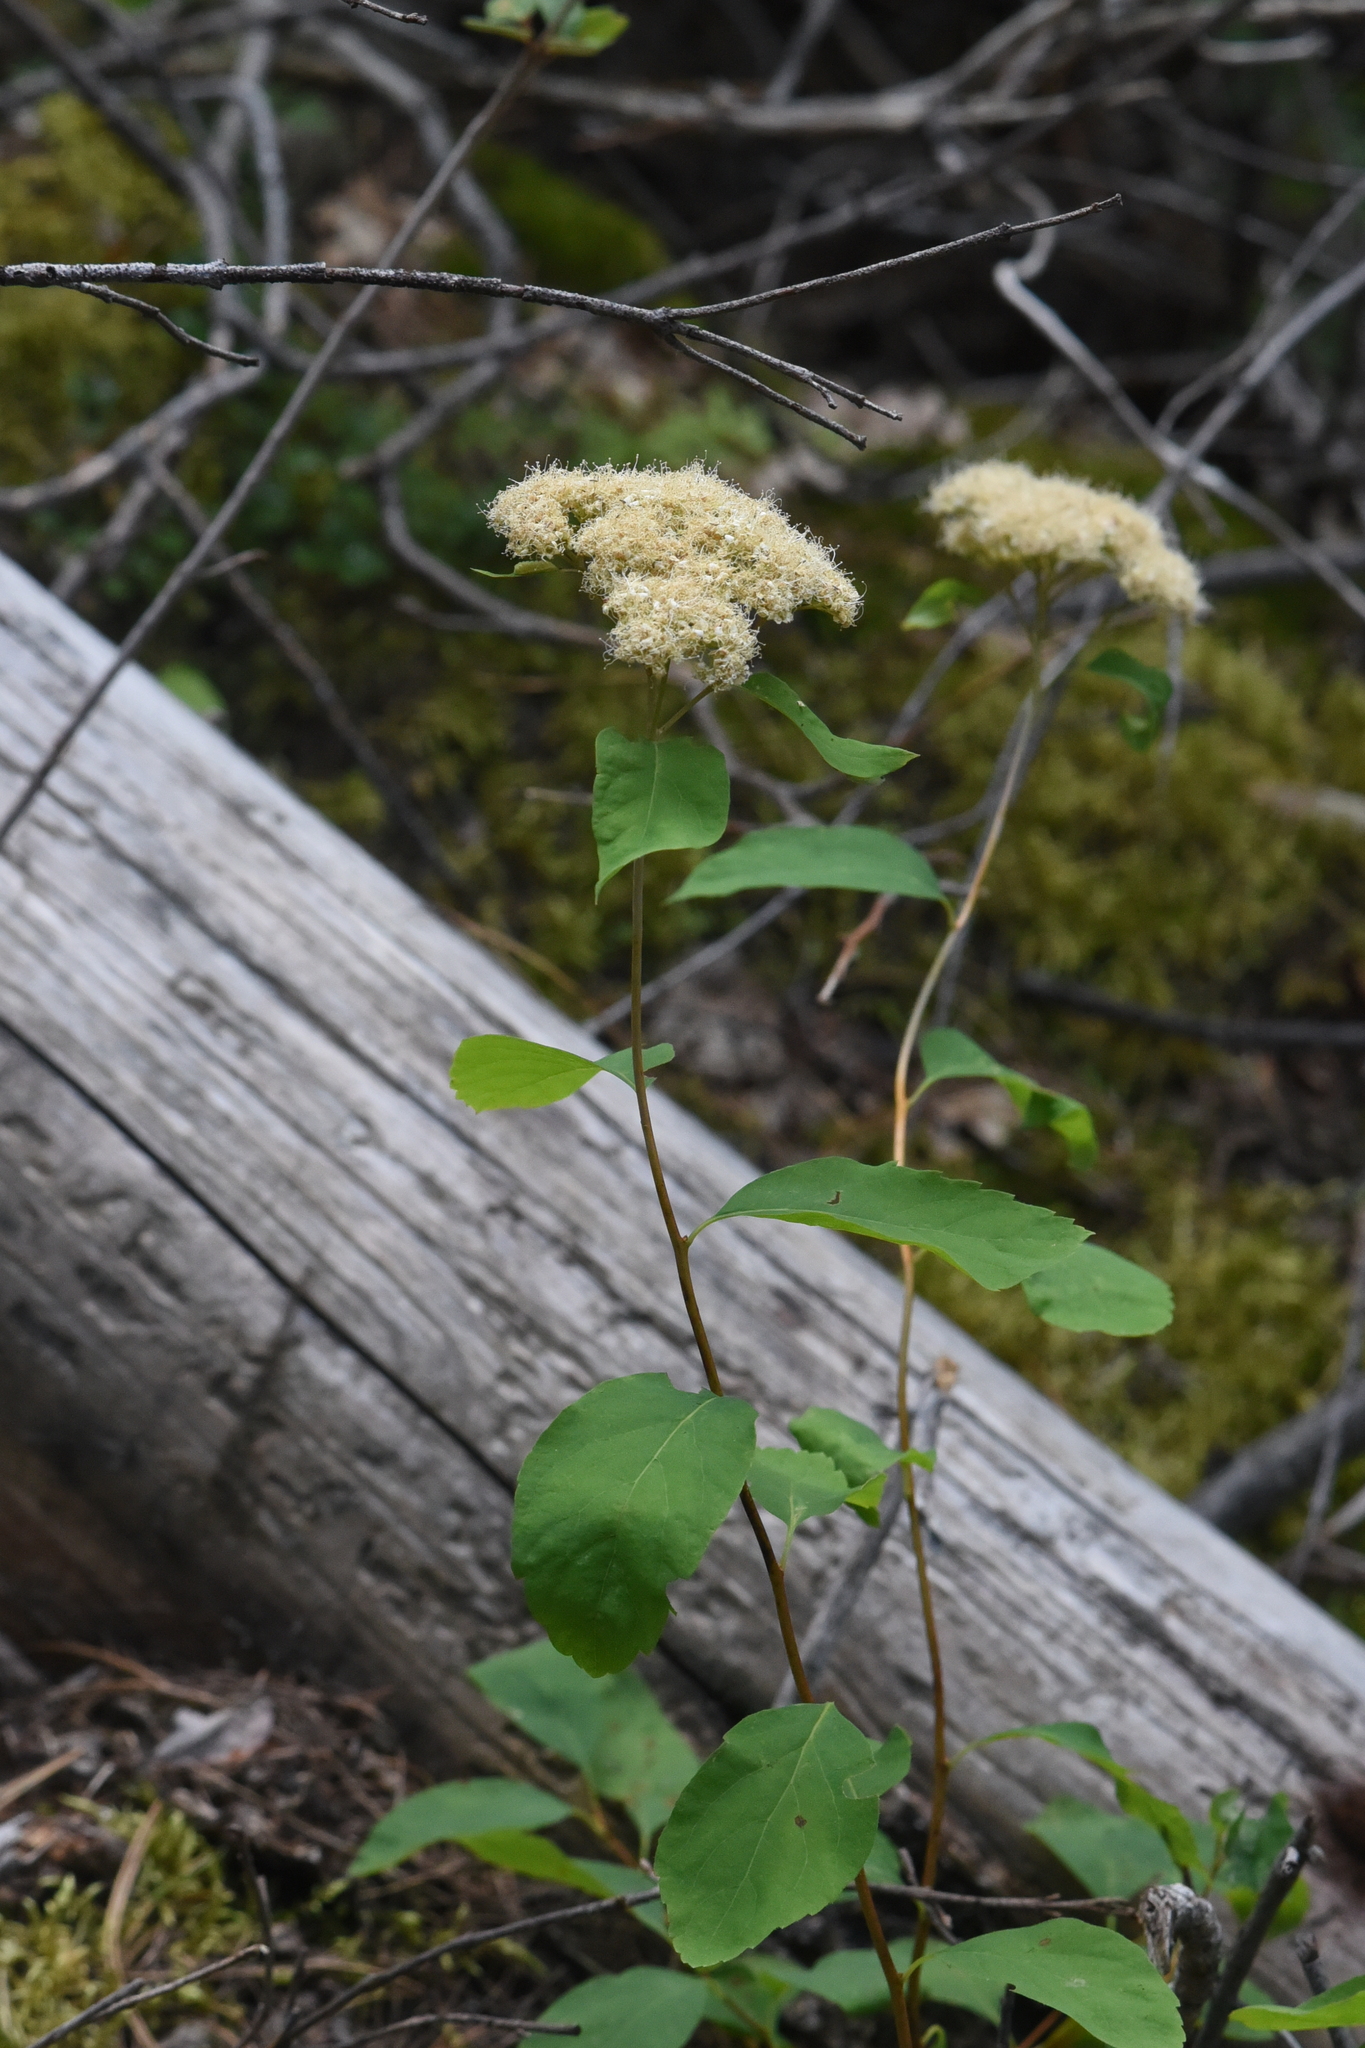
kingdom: Plantae
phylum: Tracheophyta
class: Magnoliopsida
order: Rosales
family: Rosaceae
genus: Spiraea
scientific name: Spiraea lucida
